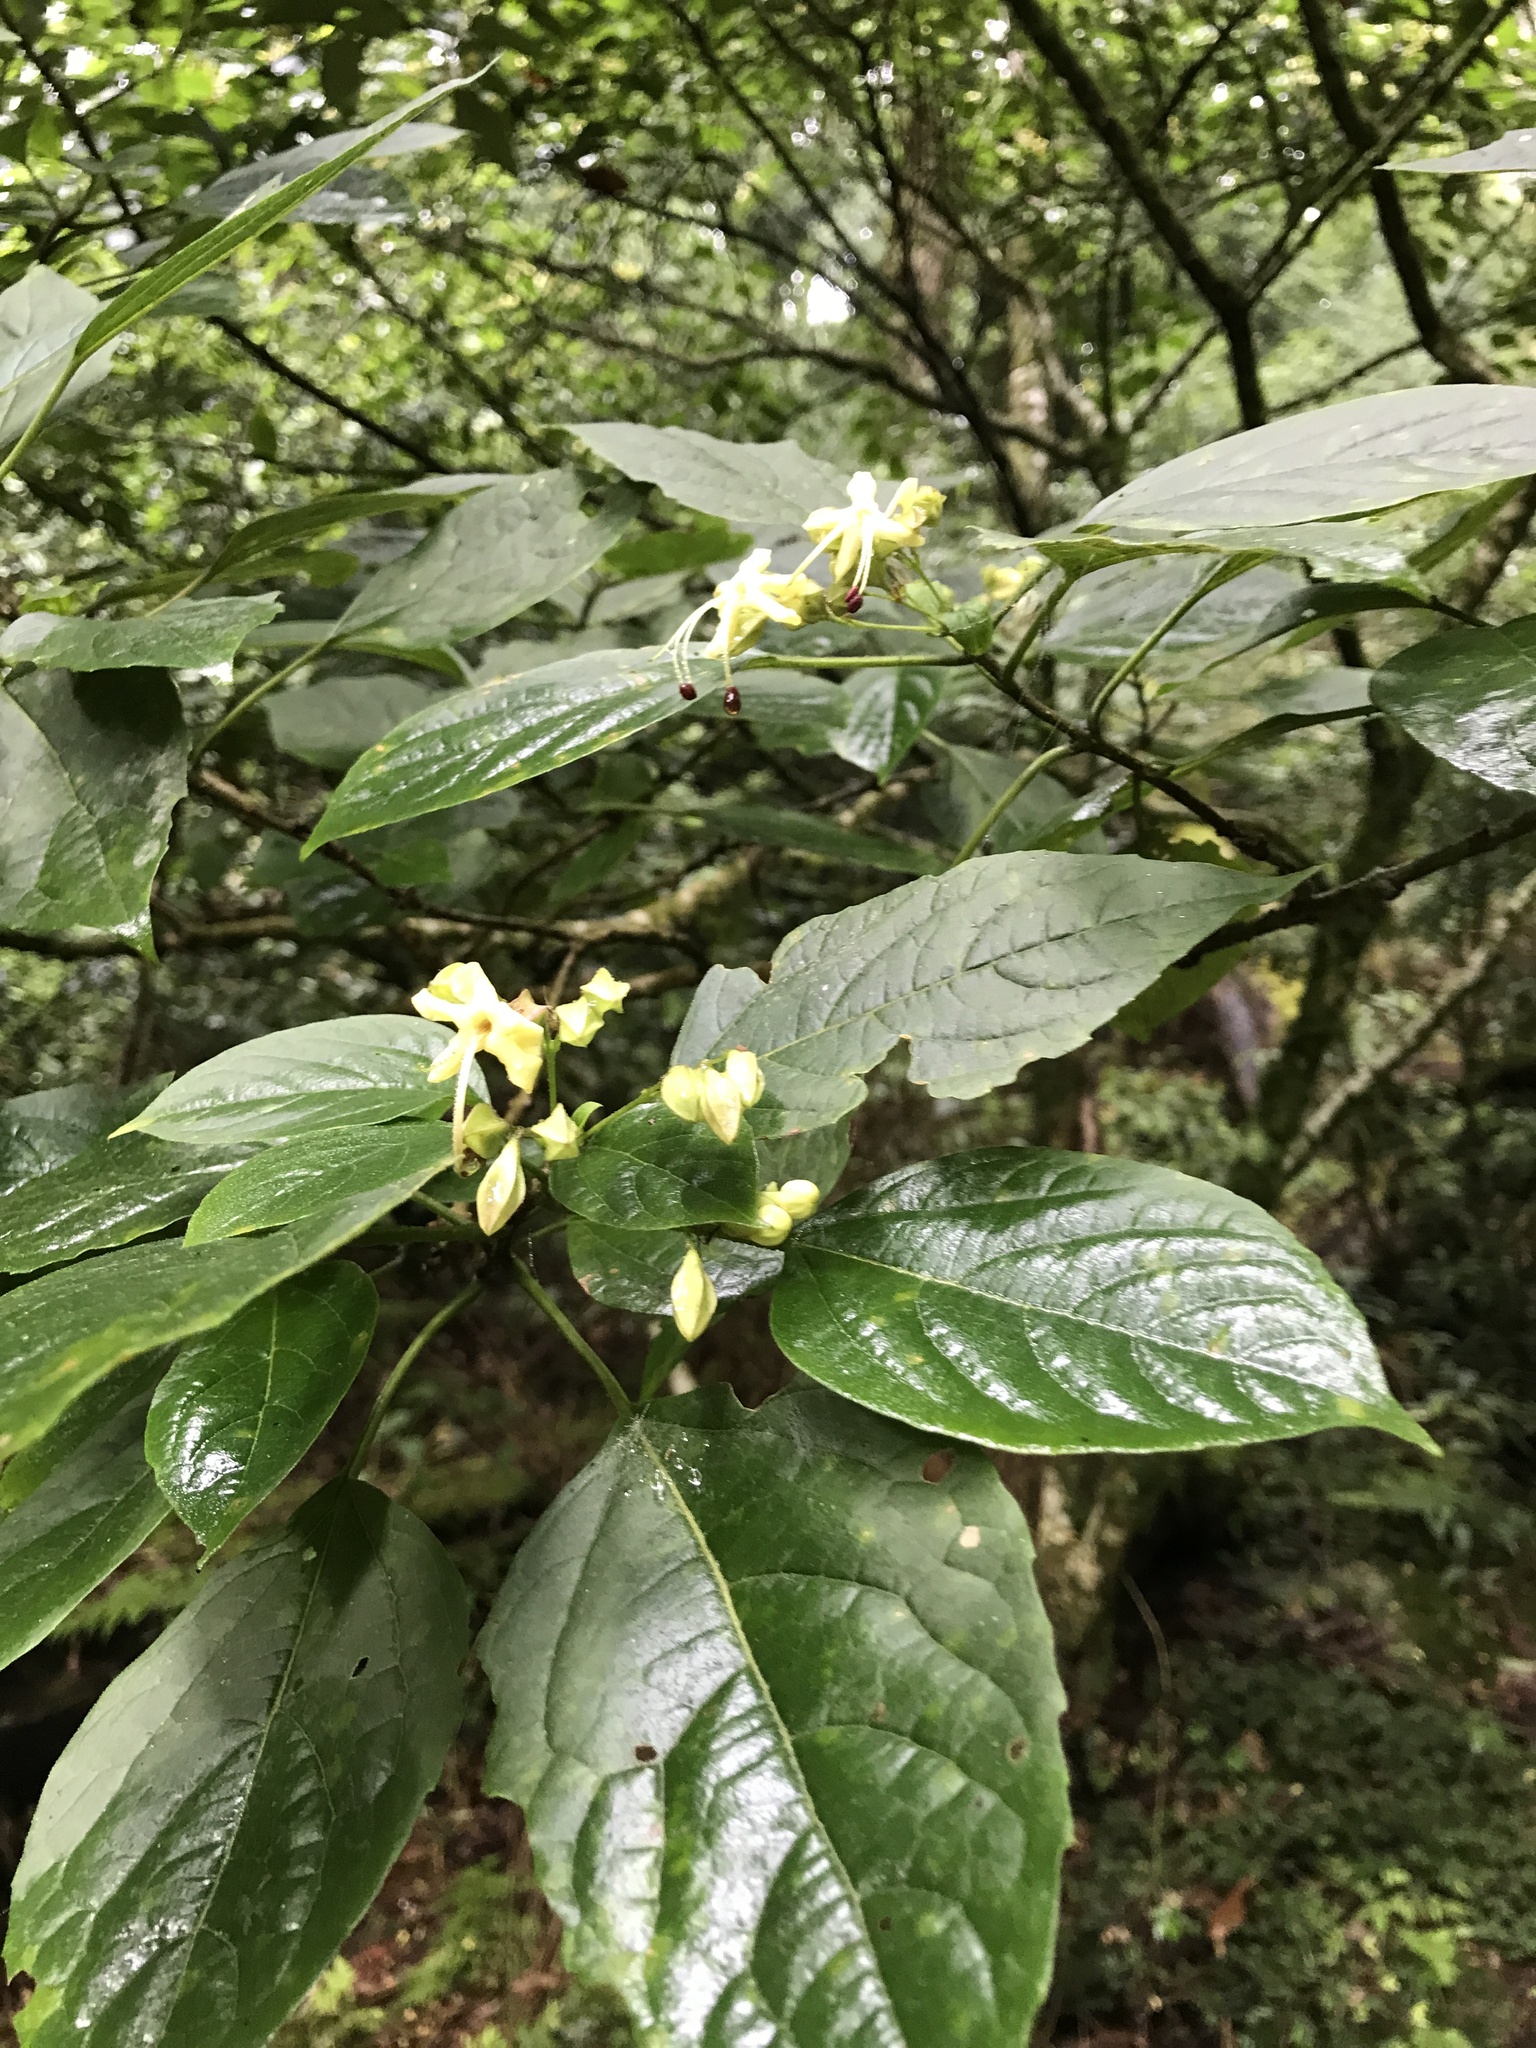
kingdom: Plantae
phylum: Tracheophyta
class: Magnoliopsida
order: Lamiales
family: Lamiaceae
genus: Clerodendrum
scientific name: Clerodendrum trichotomum
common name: Harlequin glorybower
